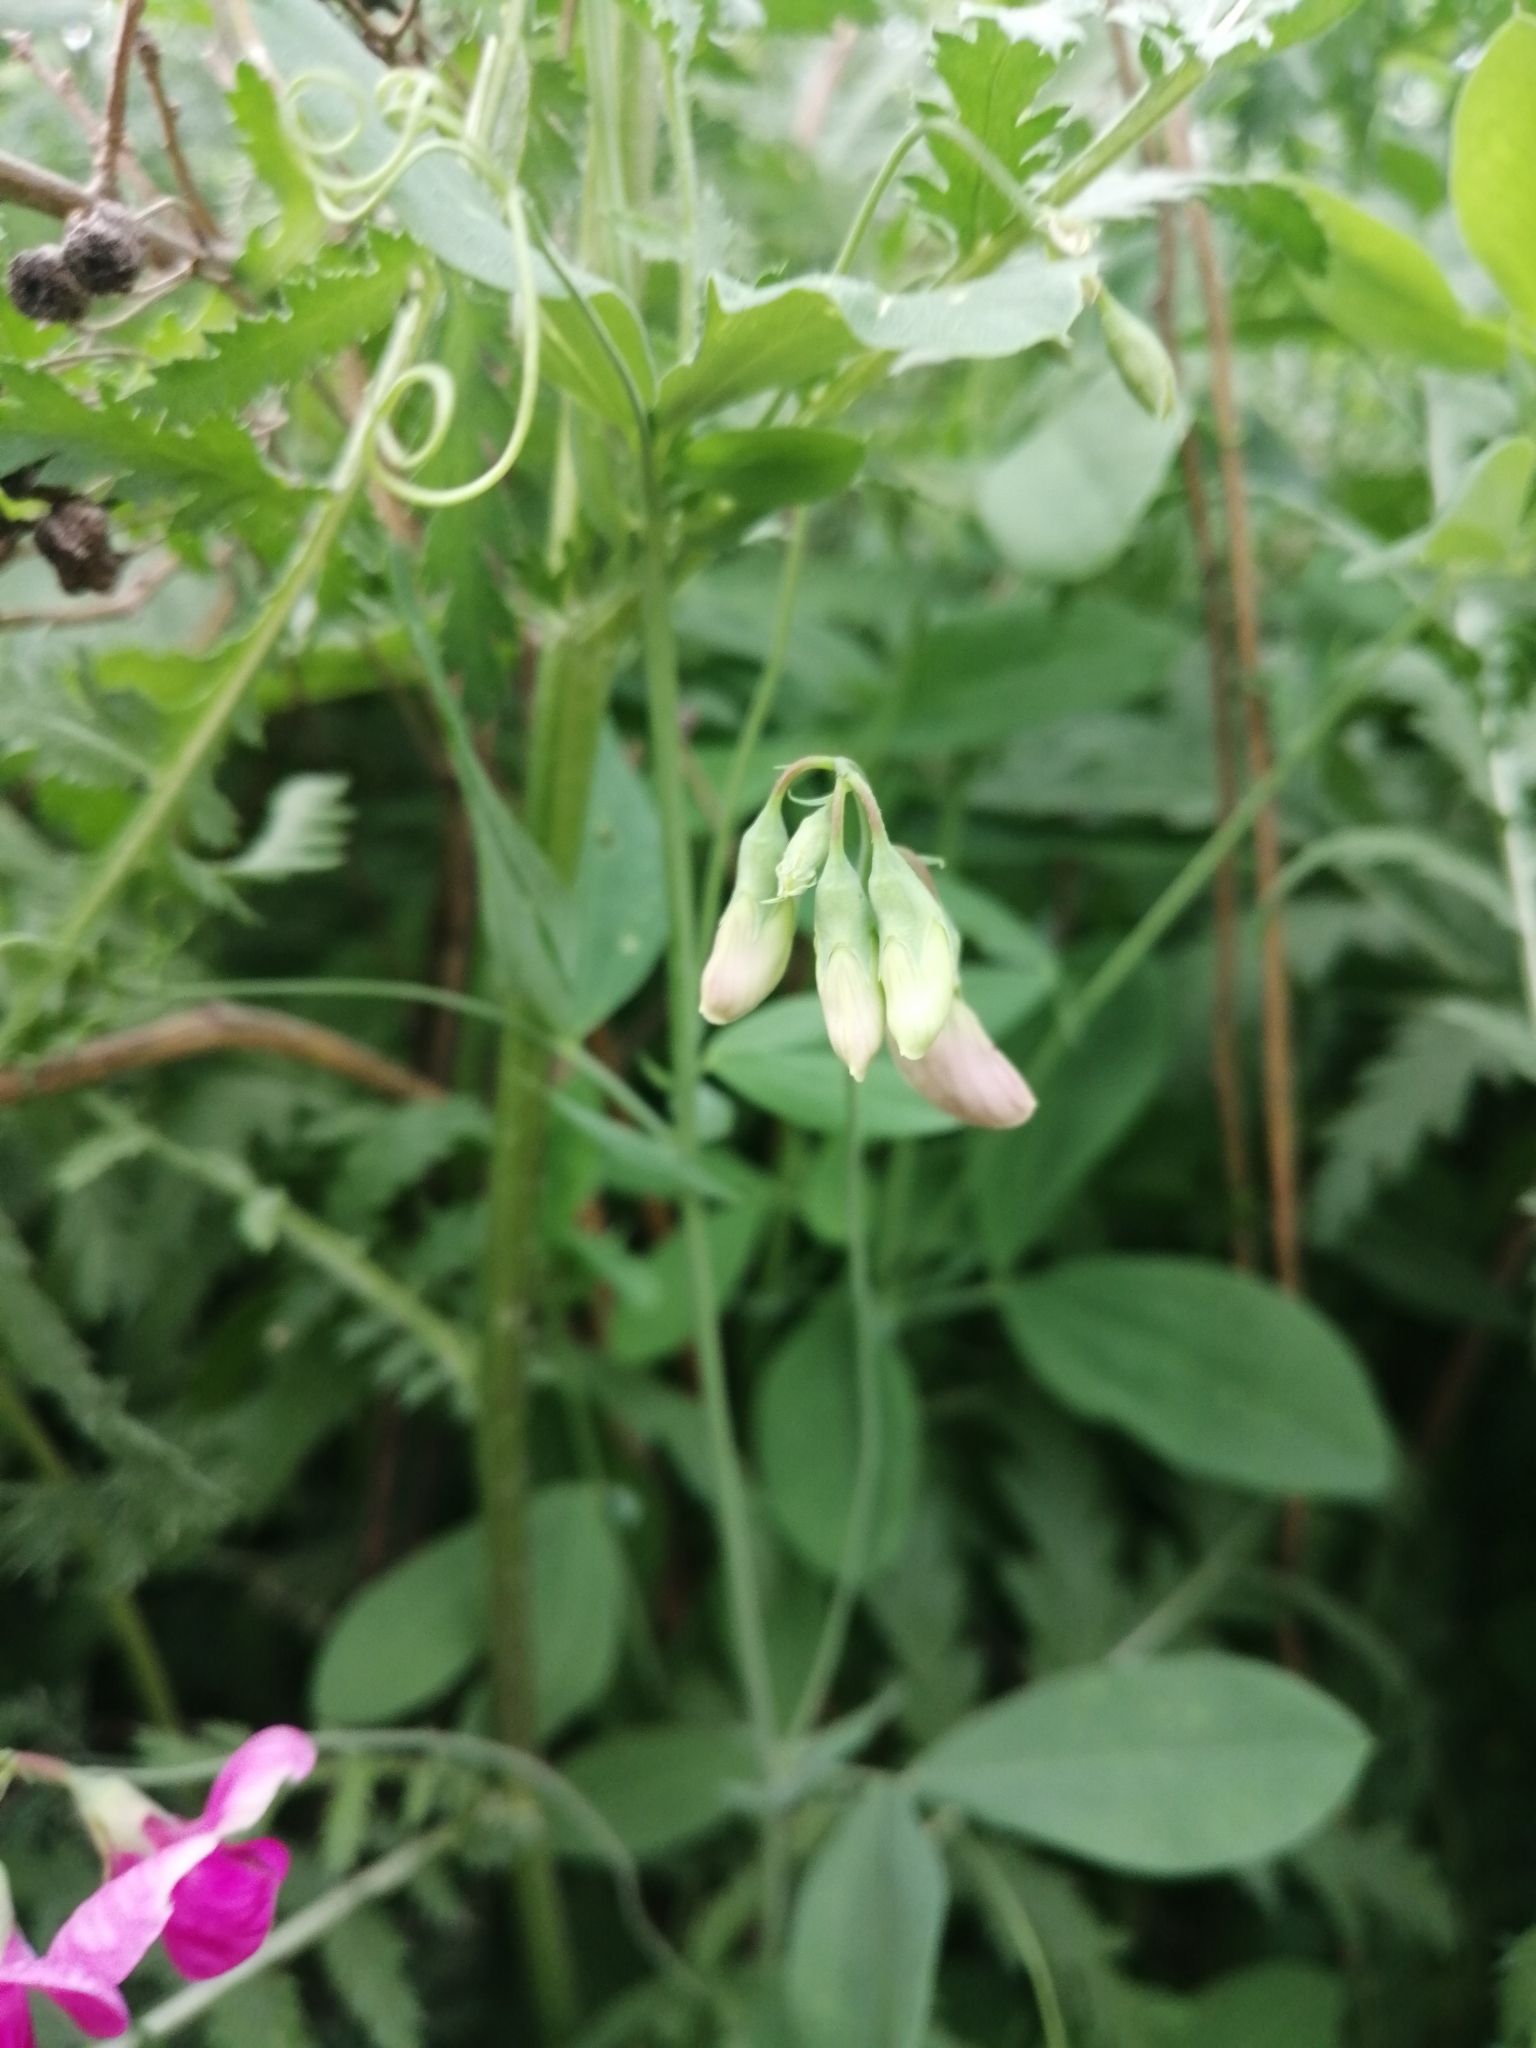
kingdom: Plantae
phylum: Tracheophyta
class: Magnoliopsida
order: Fabales
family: Fabaceae
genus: Lathyrus
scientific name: Lathyrus tuberosus
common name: Tuberous pea
